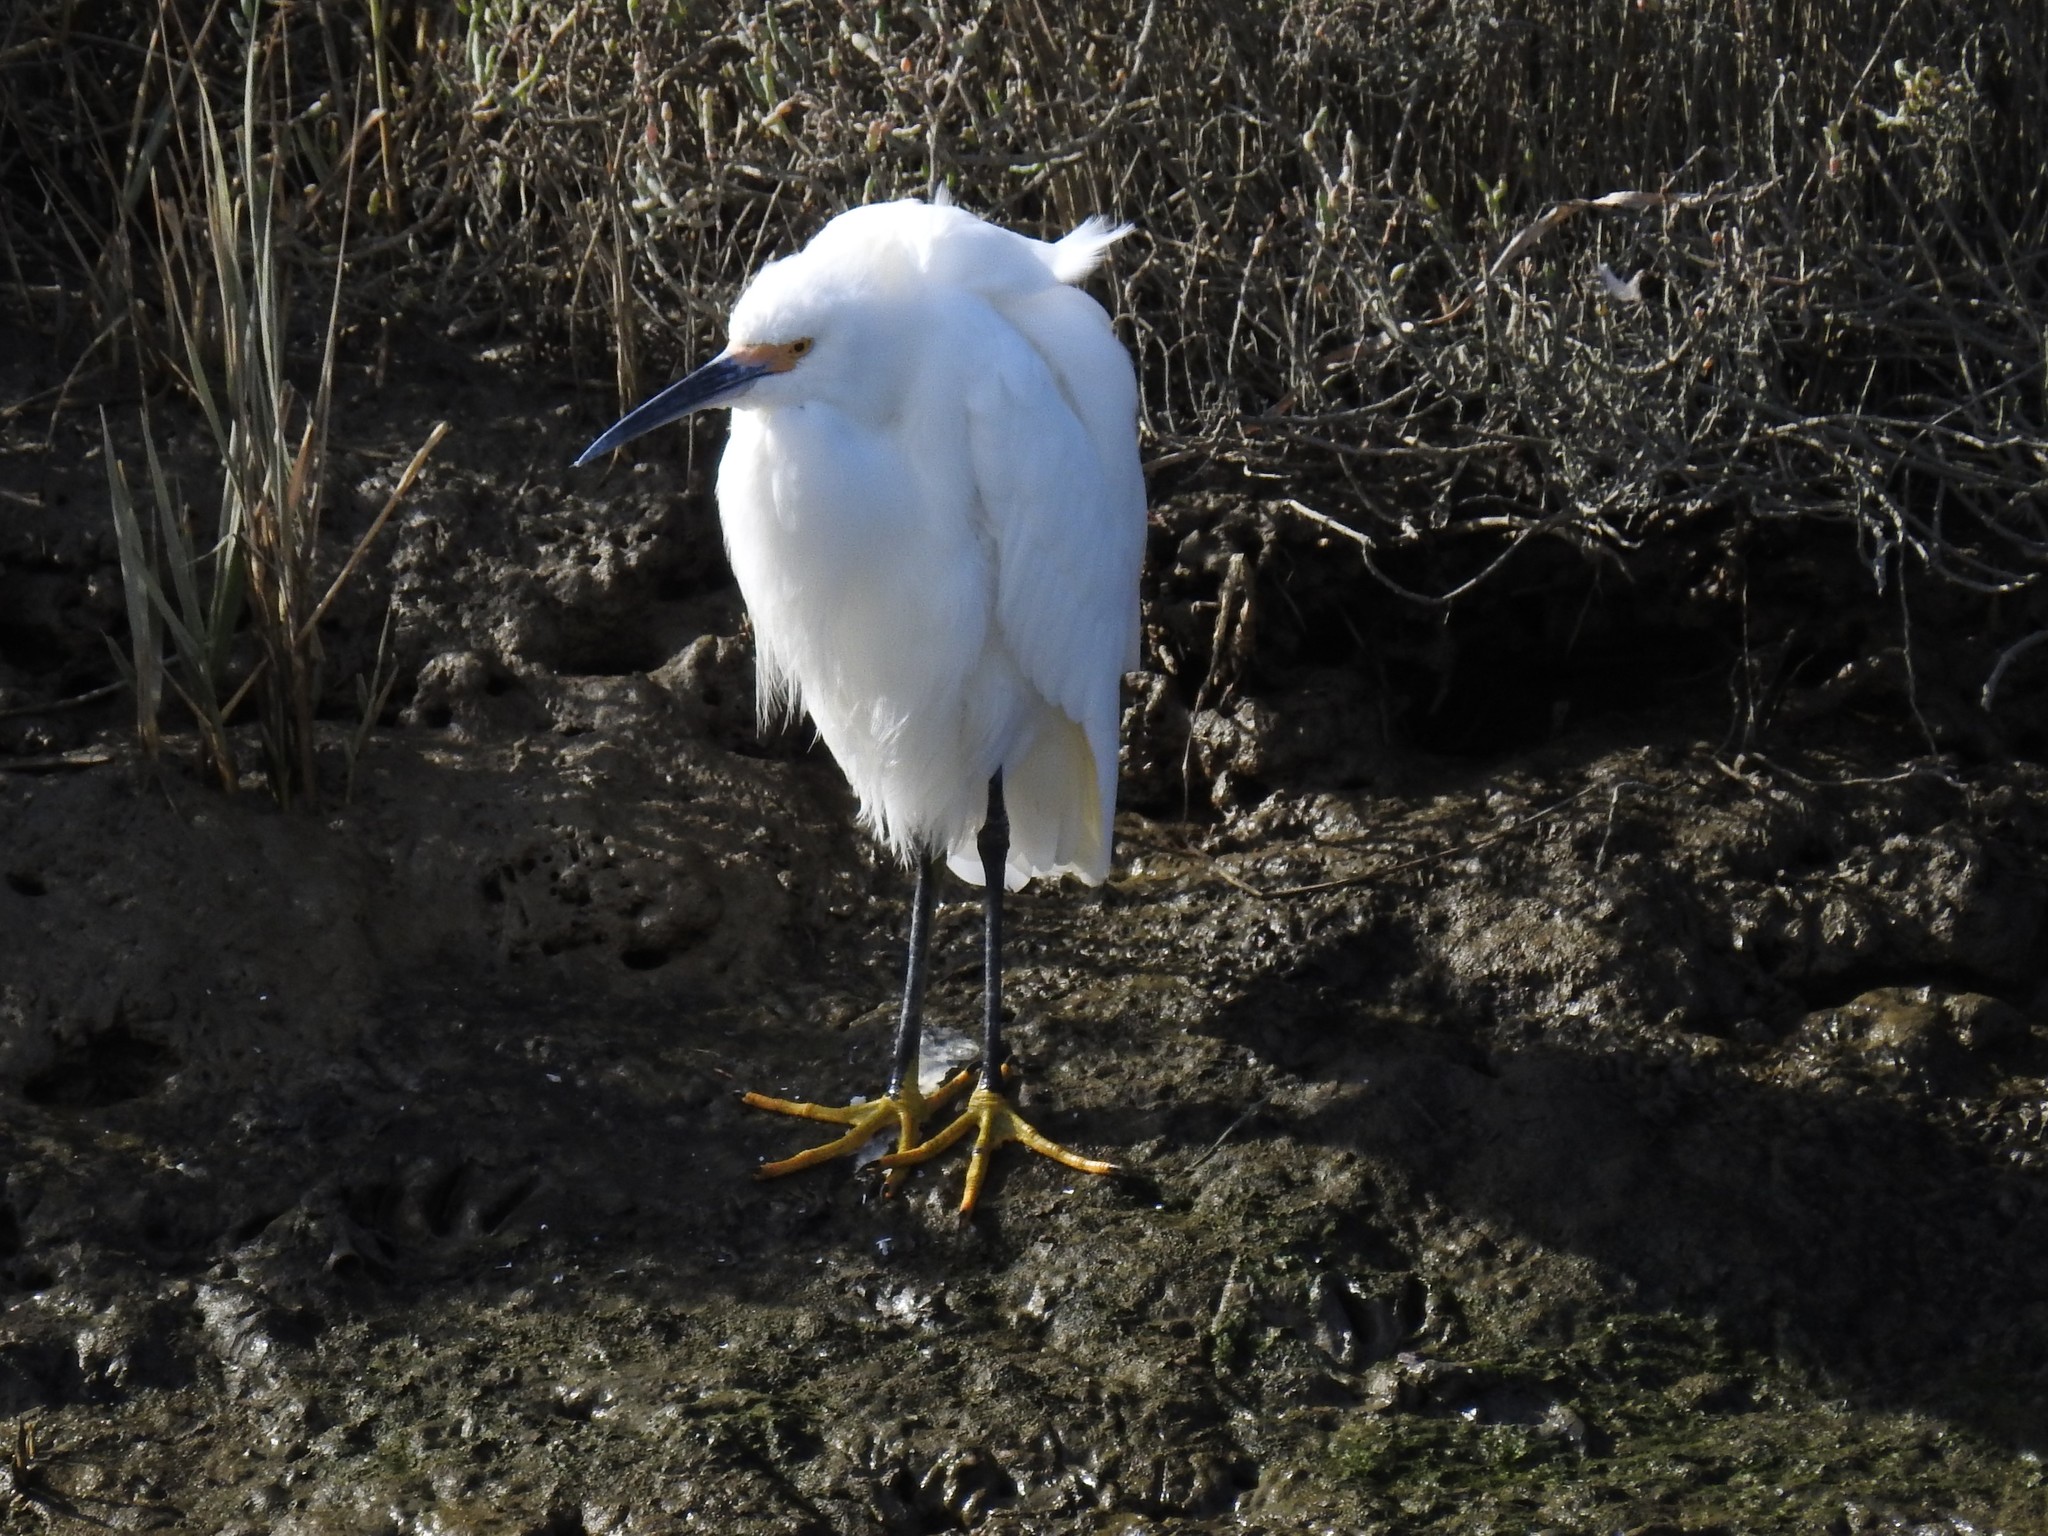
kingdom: Animalia
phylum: Chordata
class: Aves
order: Pelecaniformes
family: Ardeidae
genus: Egretta
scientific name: Egretta thula
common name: Snowy egret
